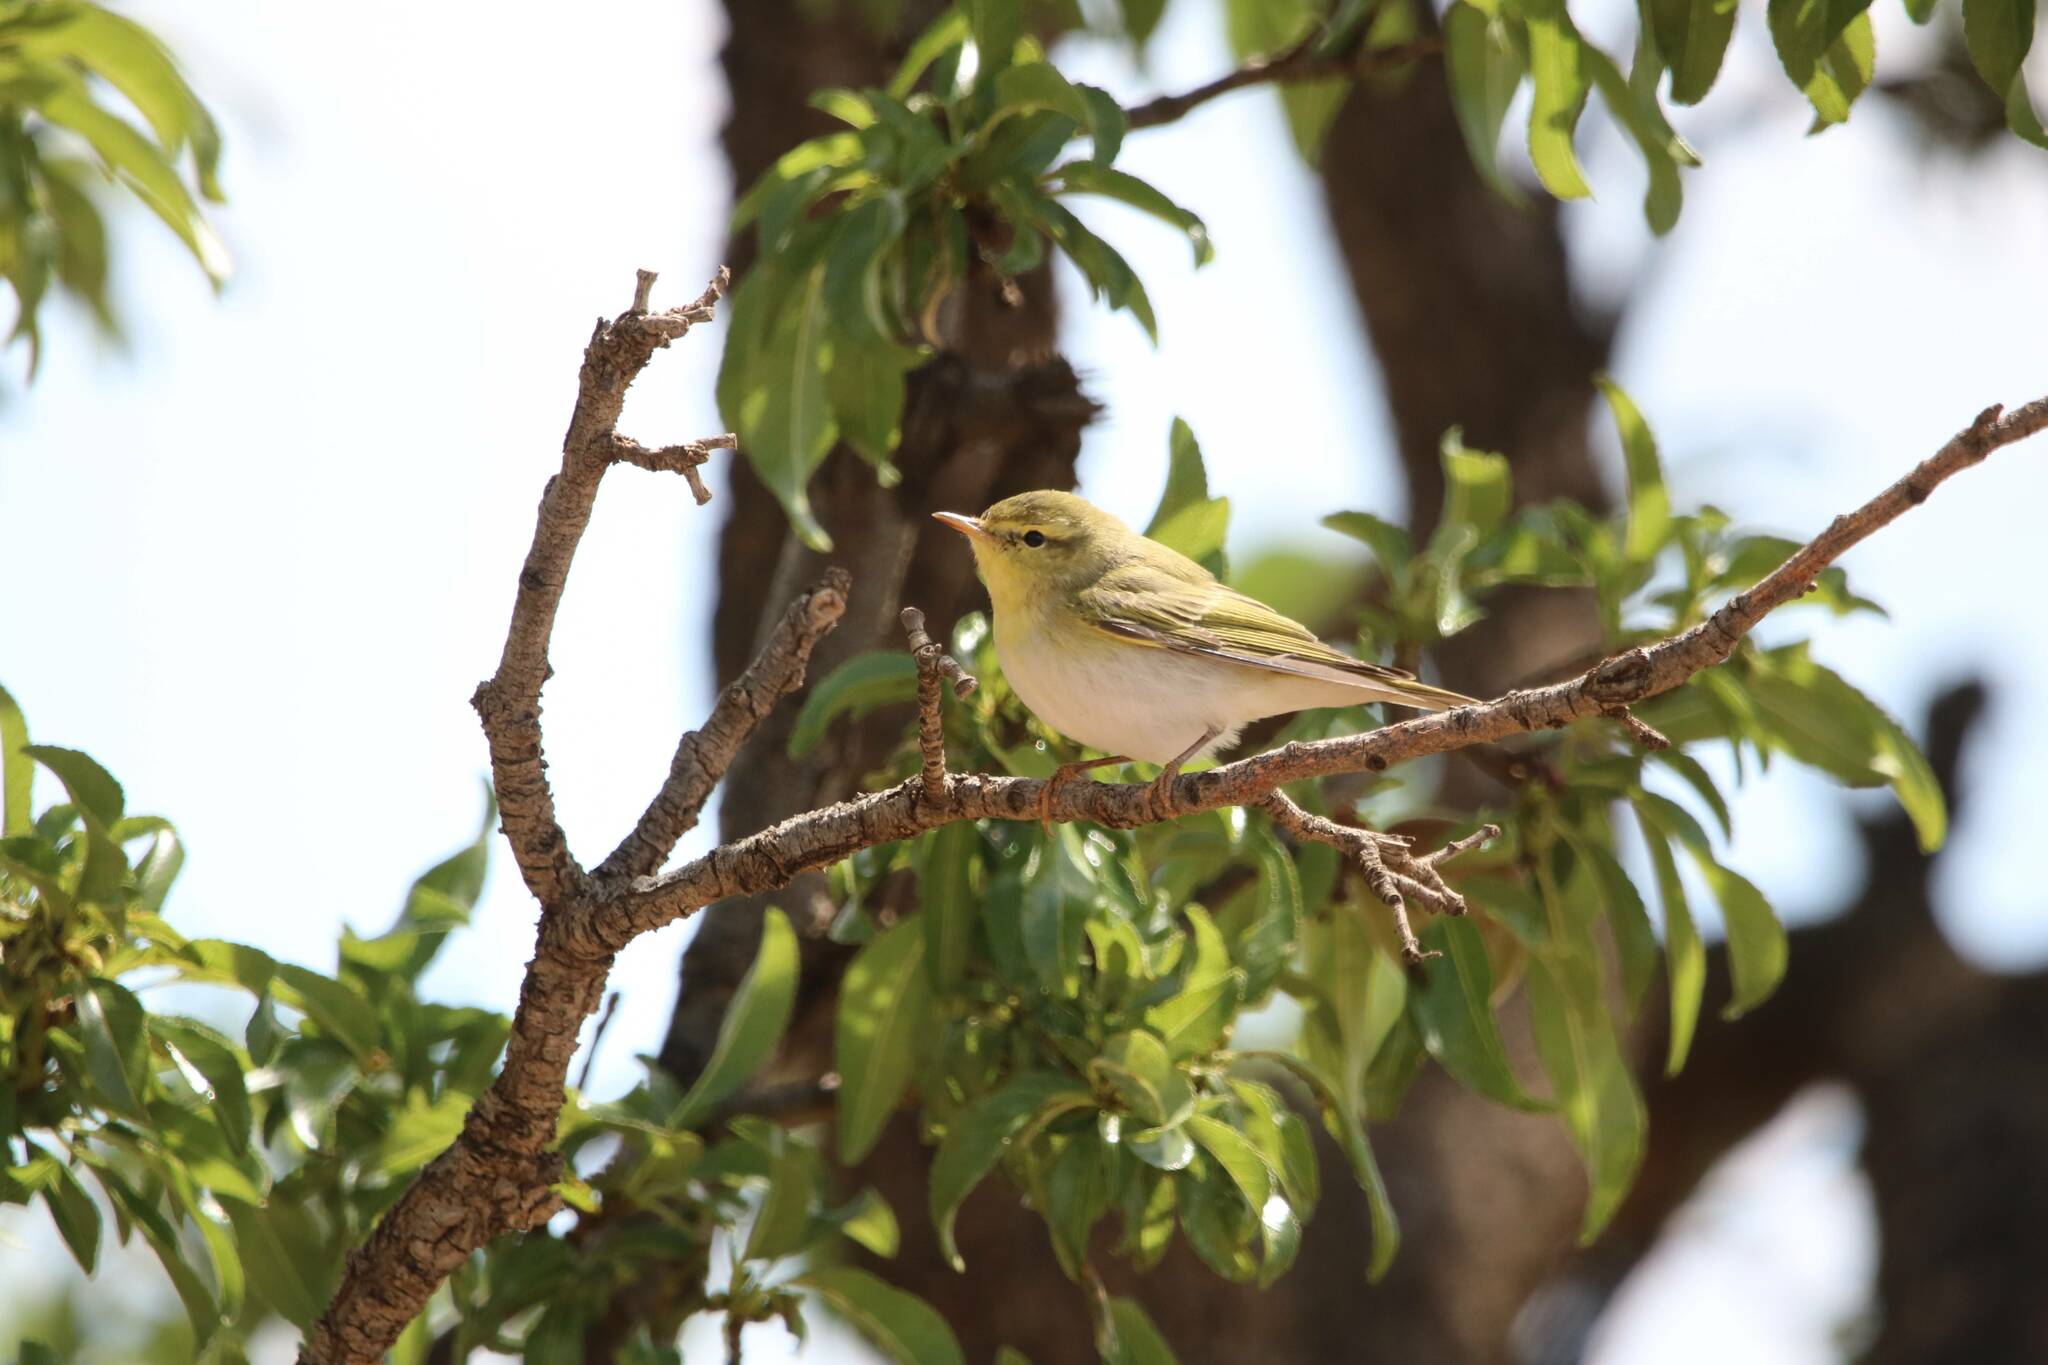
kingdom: Animalia
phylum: Chordata
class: Aves
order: Passeriformes
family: Phylloscopidae
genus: Phylloscopus
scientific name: Phylloscopus sibillatrix
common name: Wood warbler
